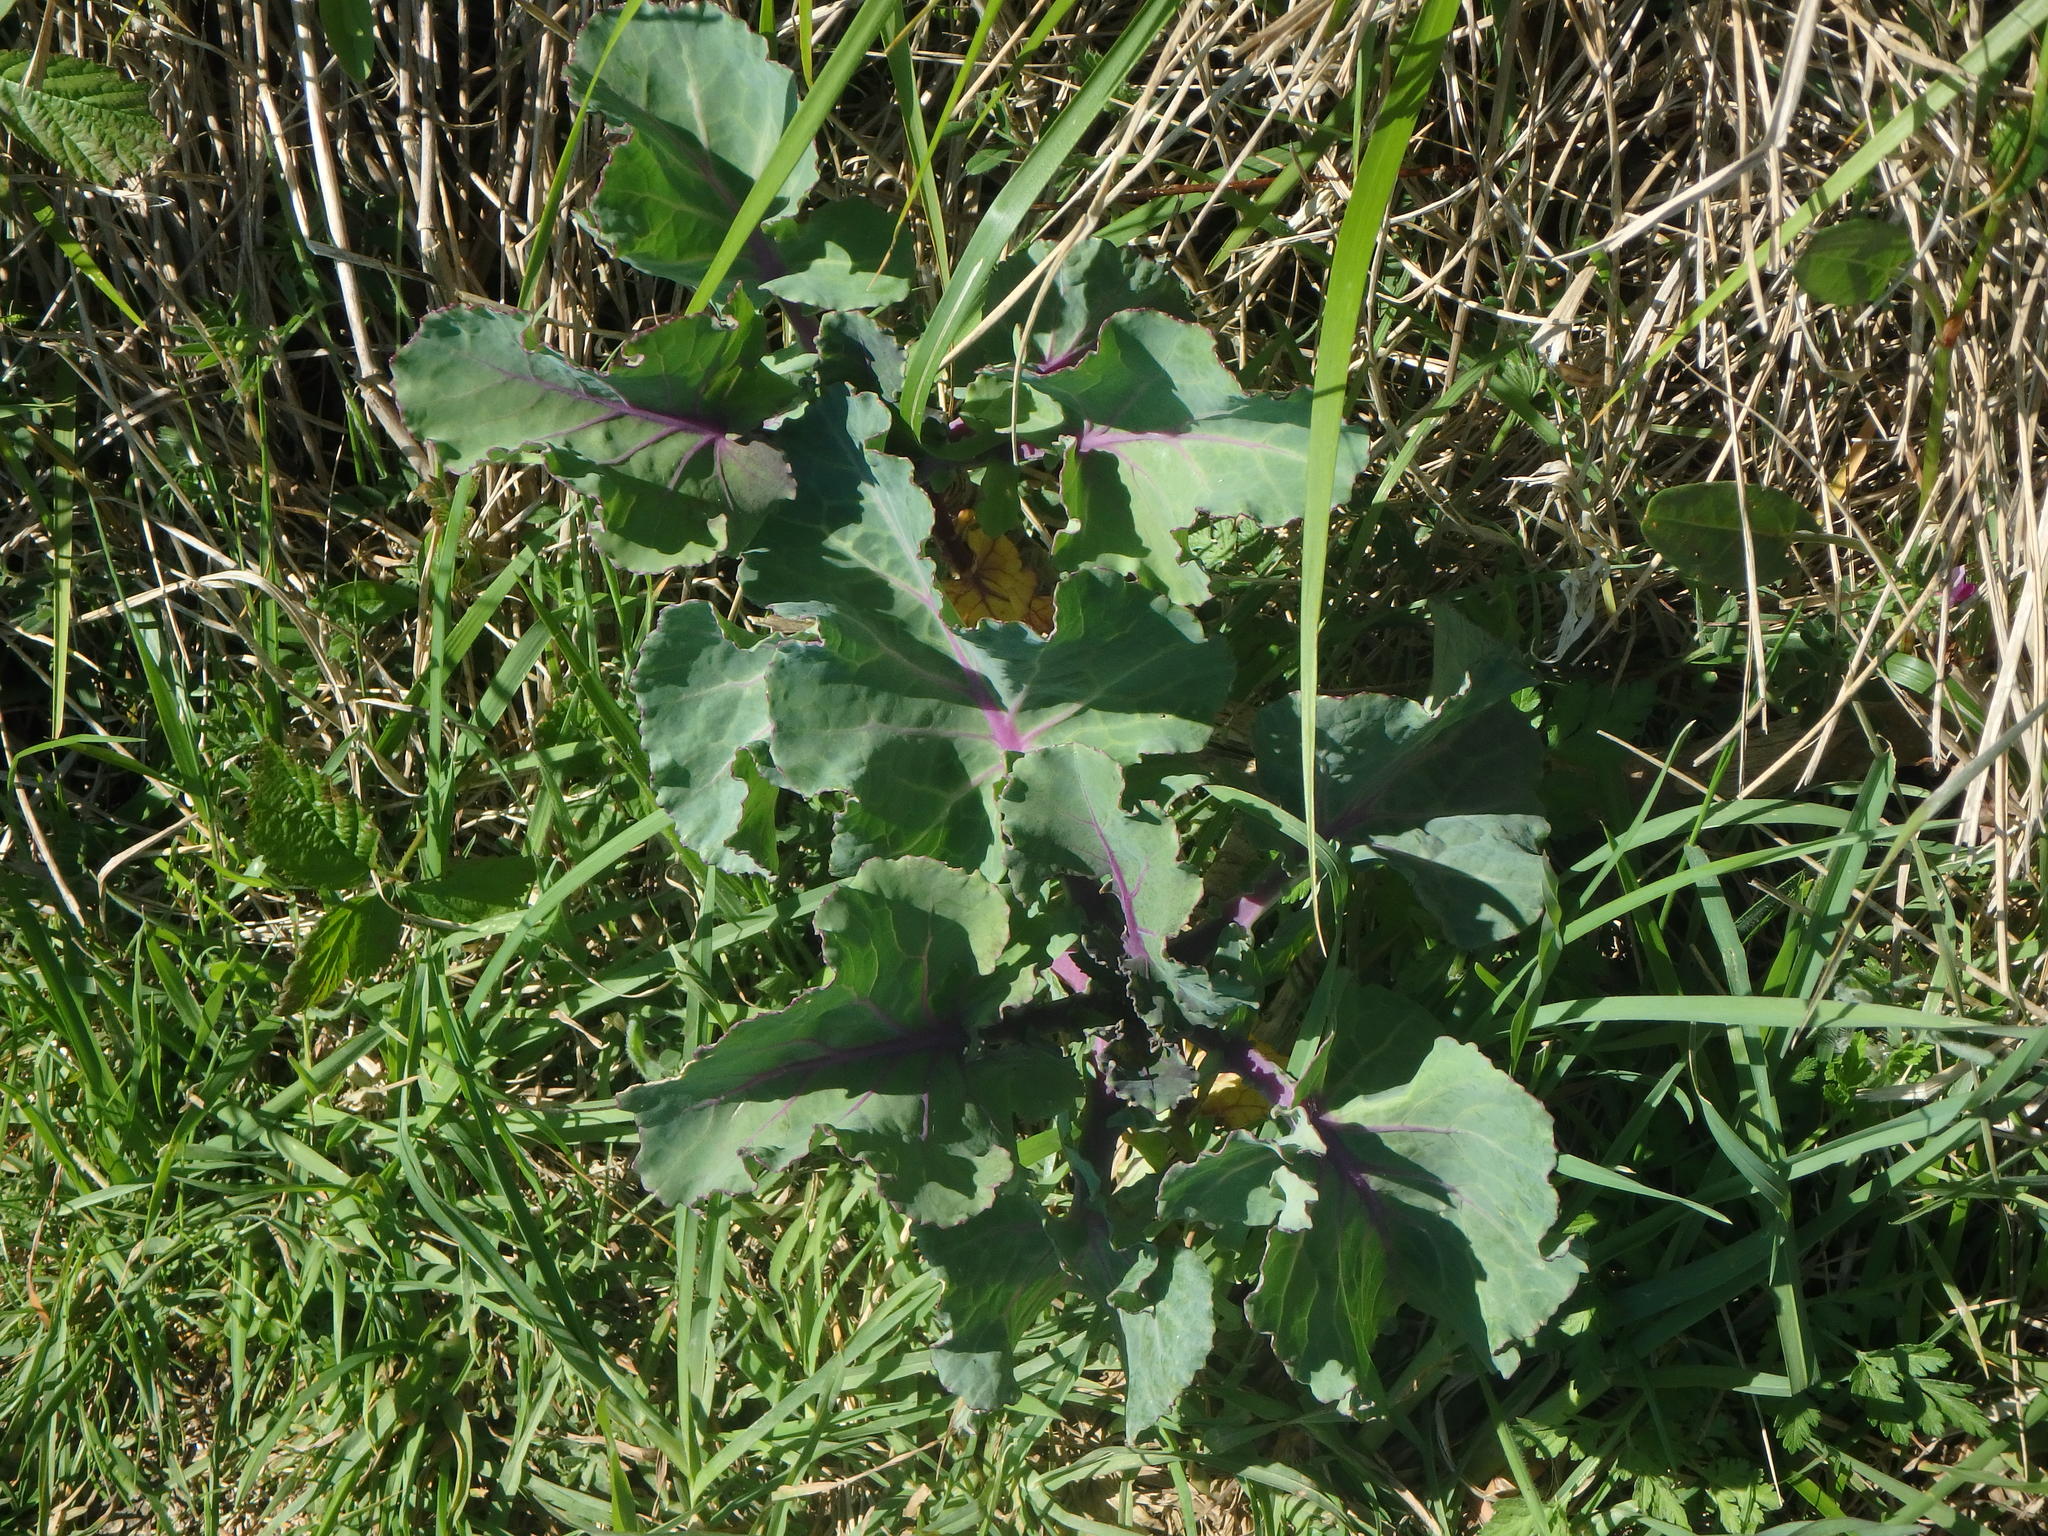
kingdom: Plantae
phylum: Tracheophyta
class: Magnoliopsida
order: Brassicales
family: Brassicaceae
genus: Brassica
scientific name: Brassica oleracea
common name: Cabbage
